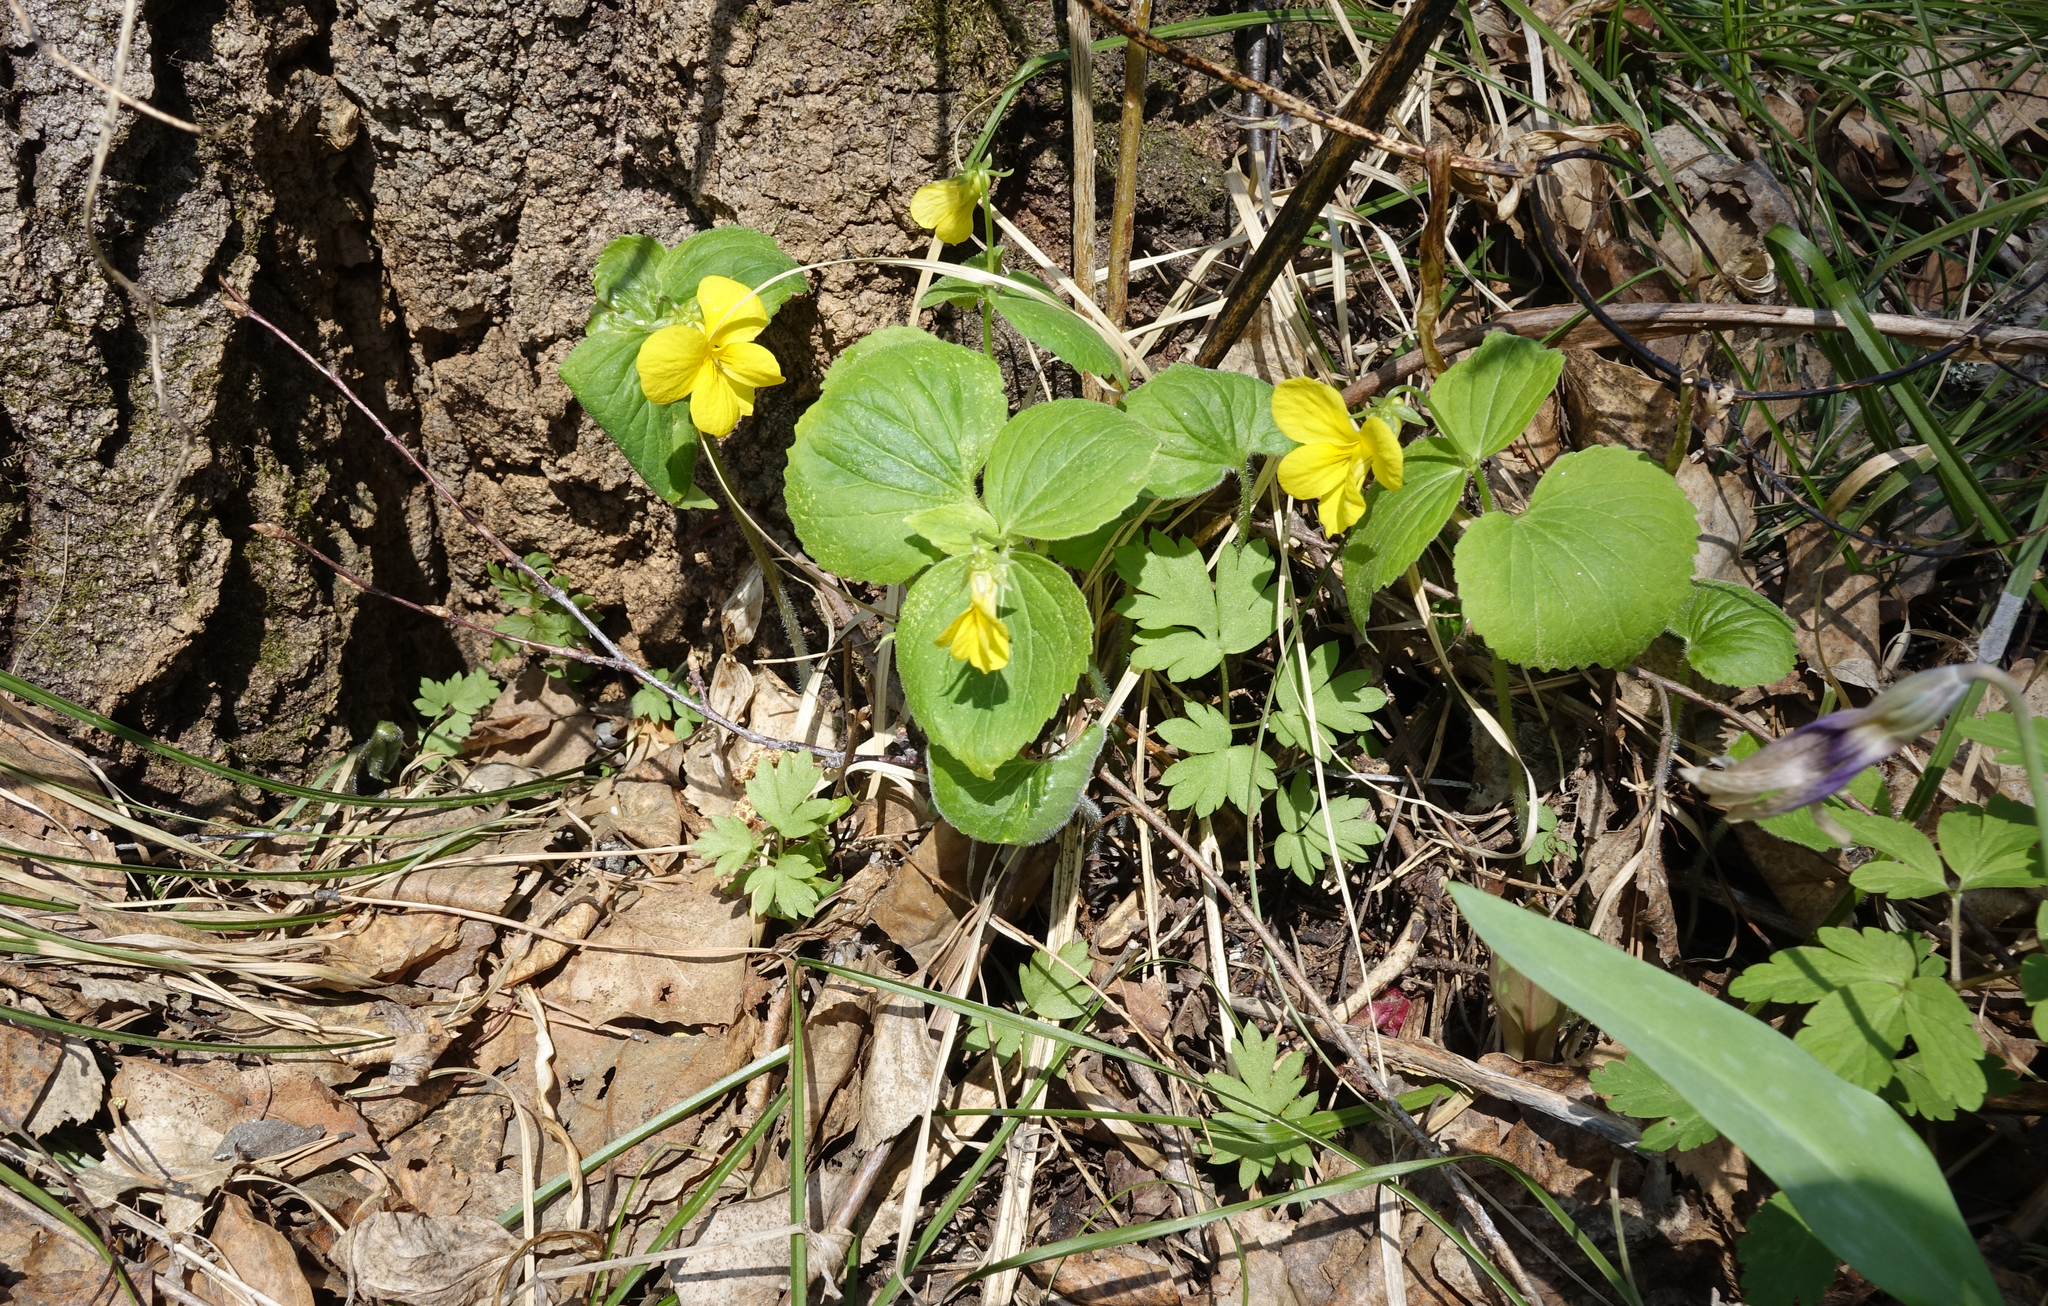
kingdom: Plantae
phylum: Tracheophyta
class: Magnoliopsida
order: Malpighiales
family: Violaceae
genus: Viola
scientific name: Viola uniflora
